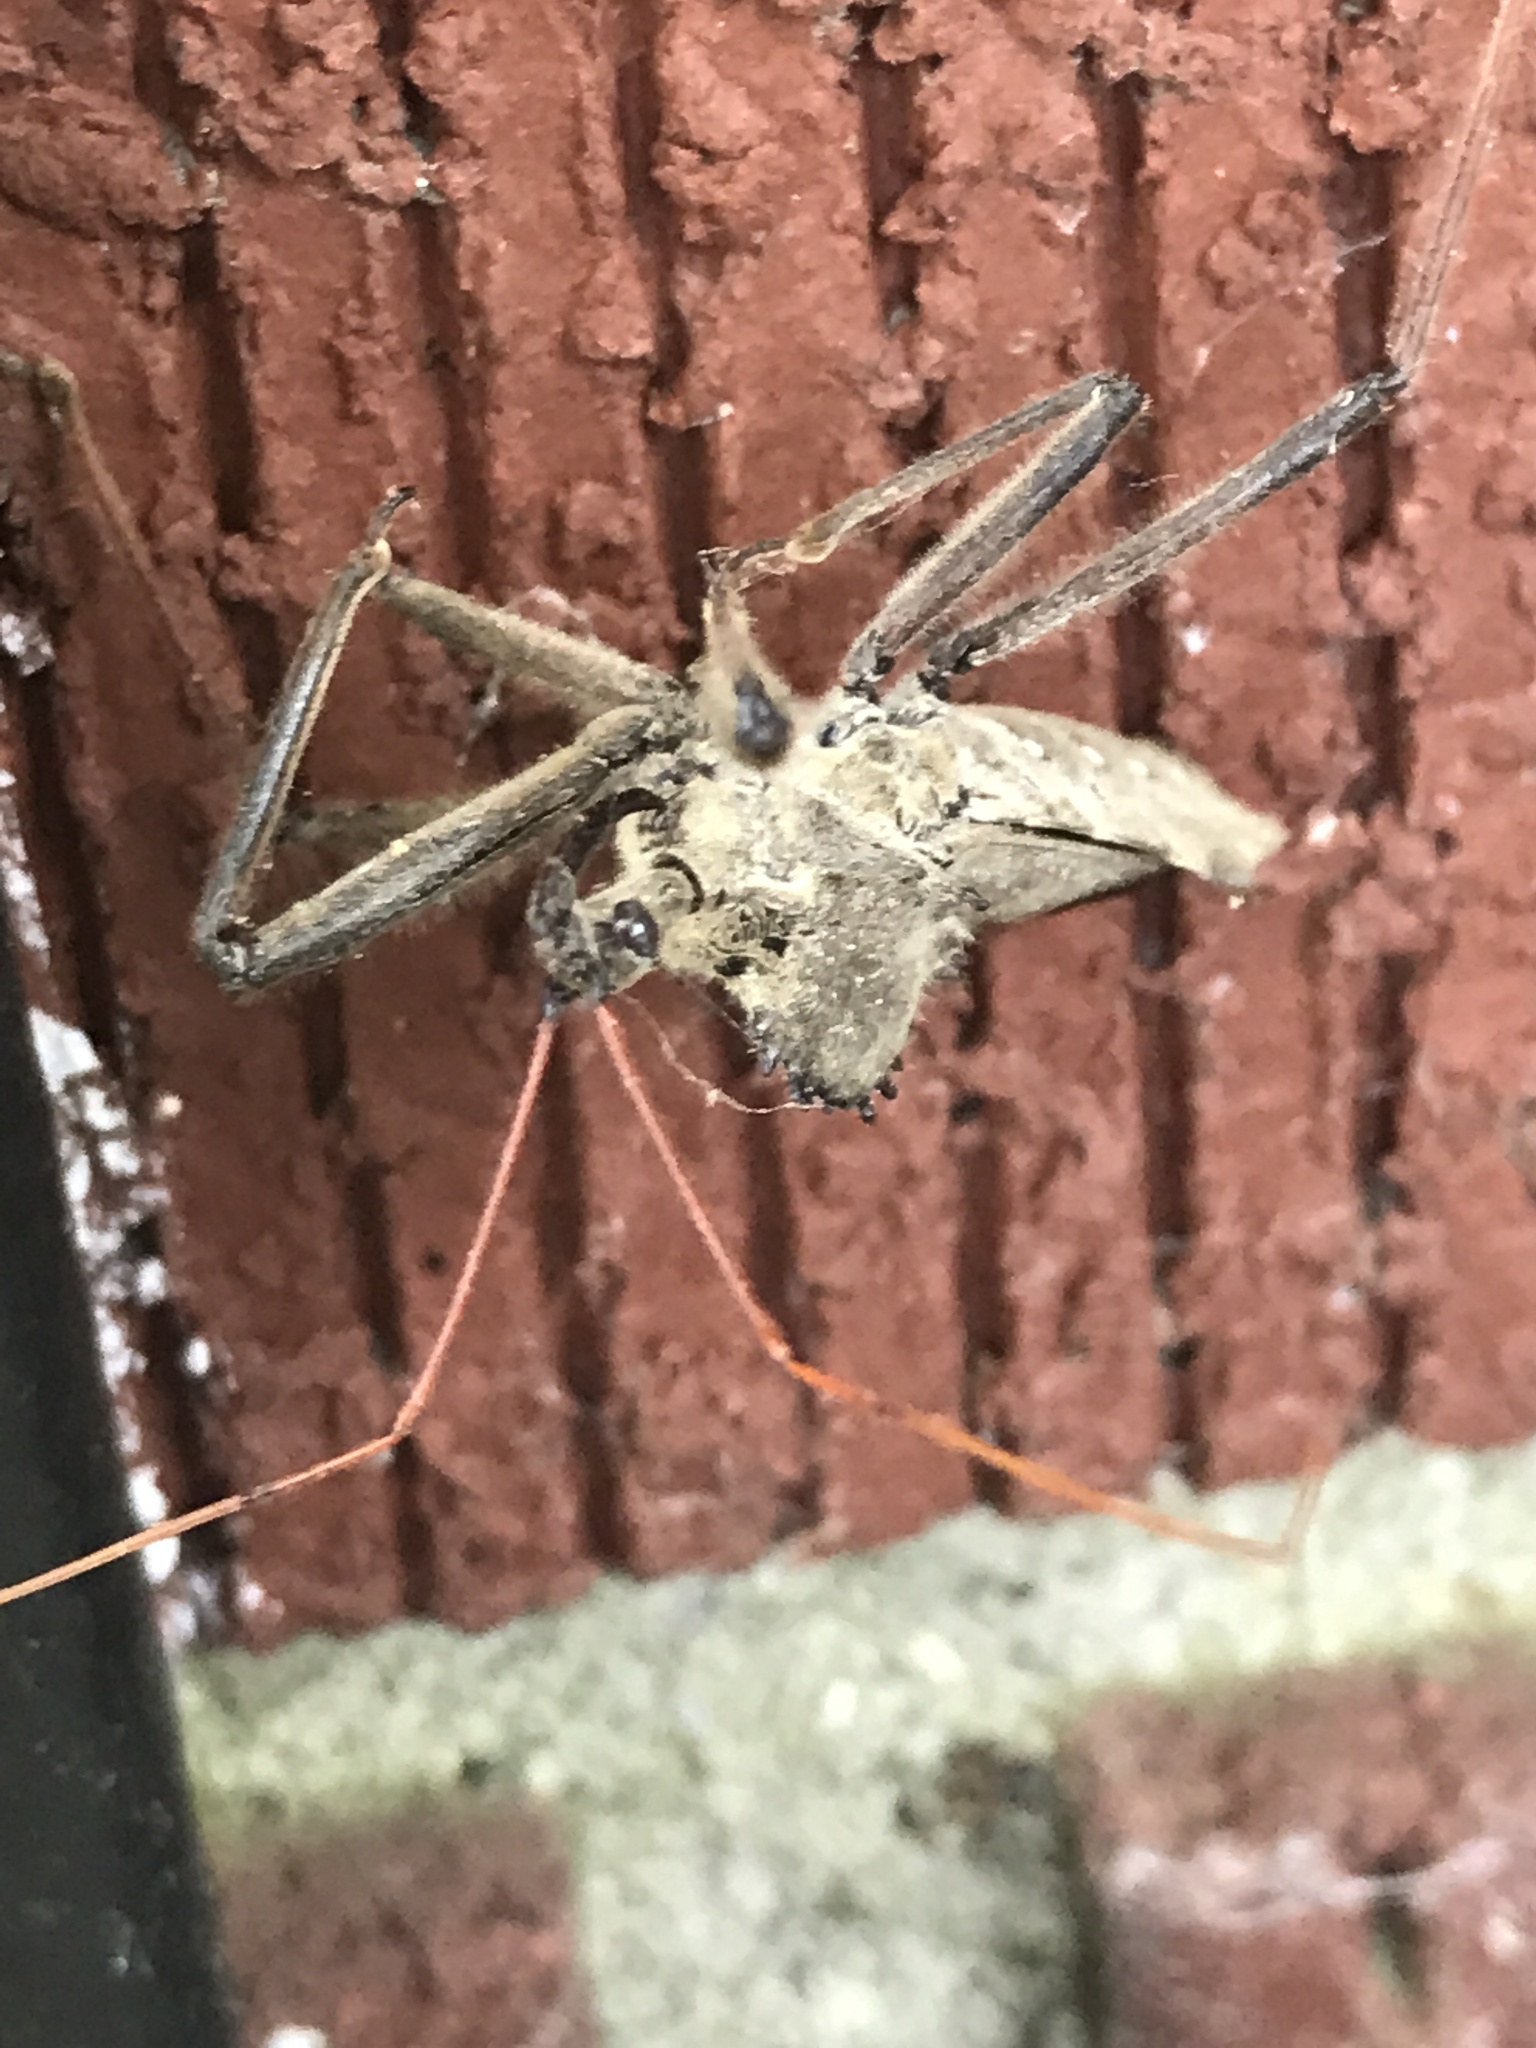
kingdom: Animalia
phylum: Arthropoda
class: Insecta
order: Hemiptera
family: Reduviidae
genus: Arilus
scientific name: Arilus cristatus
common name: North american wheel bug
